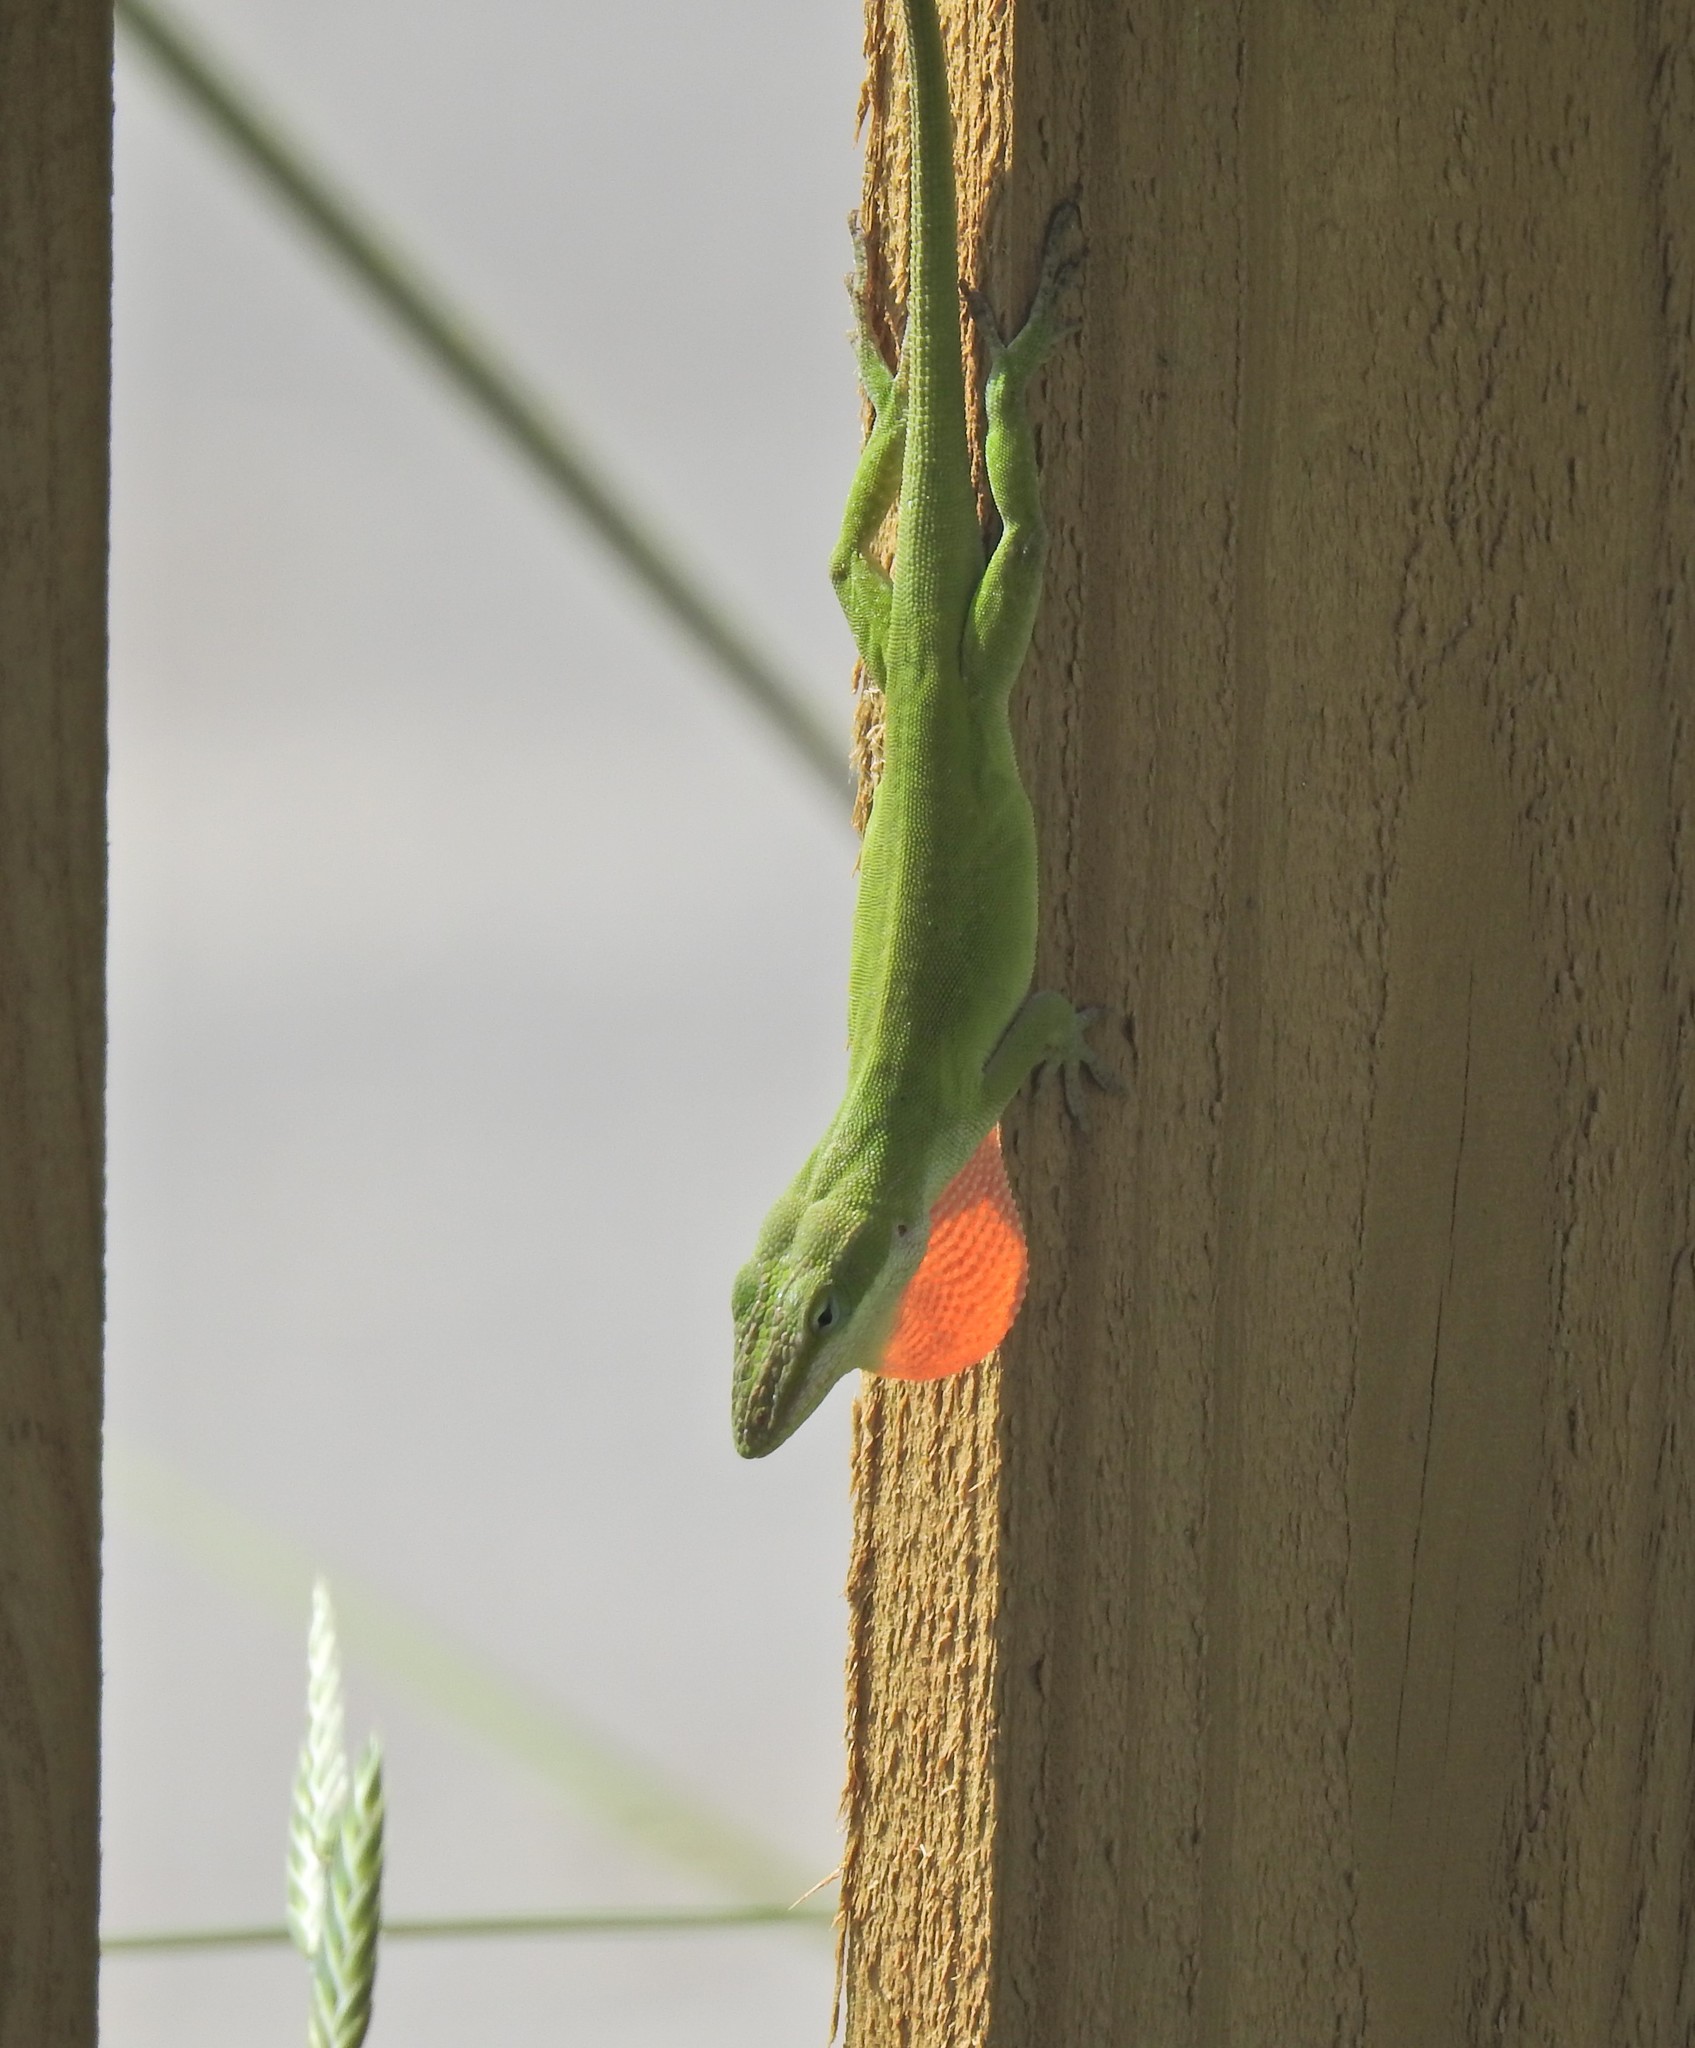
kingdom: Animalia
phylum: Chordata
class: Squamata
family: Dactyloidae
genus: Anolis
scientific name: Anolis carolinensis
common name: Green anole
